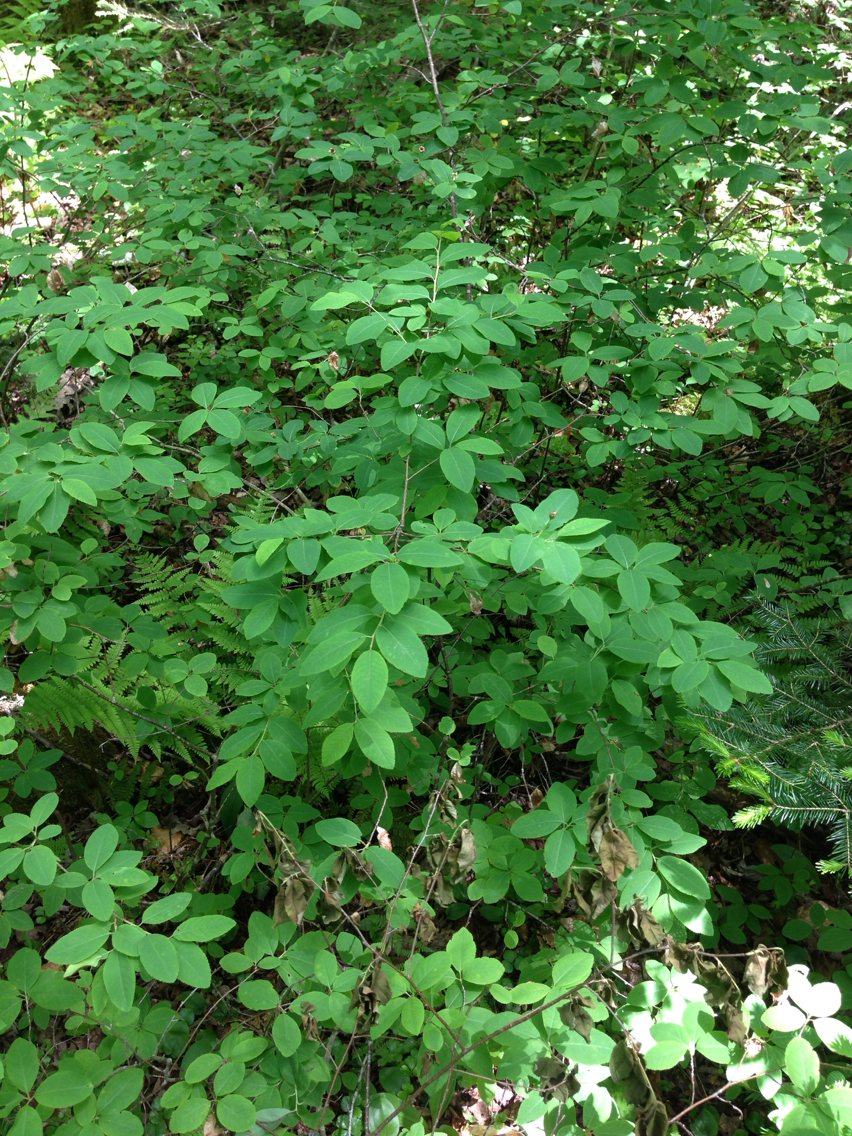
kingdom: Plantae
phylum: Tracheophyta
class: Magnoliopsida
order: Aquifoliales
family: Aquifoliaceae
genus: Ilex
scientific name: Ilex mucronata
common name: Catberry
